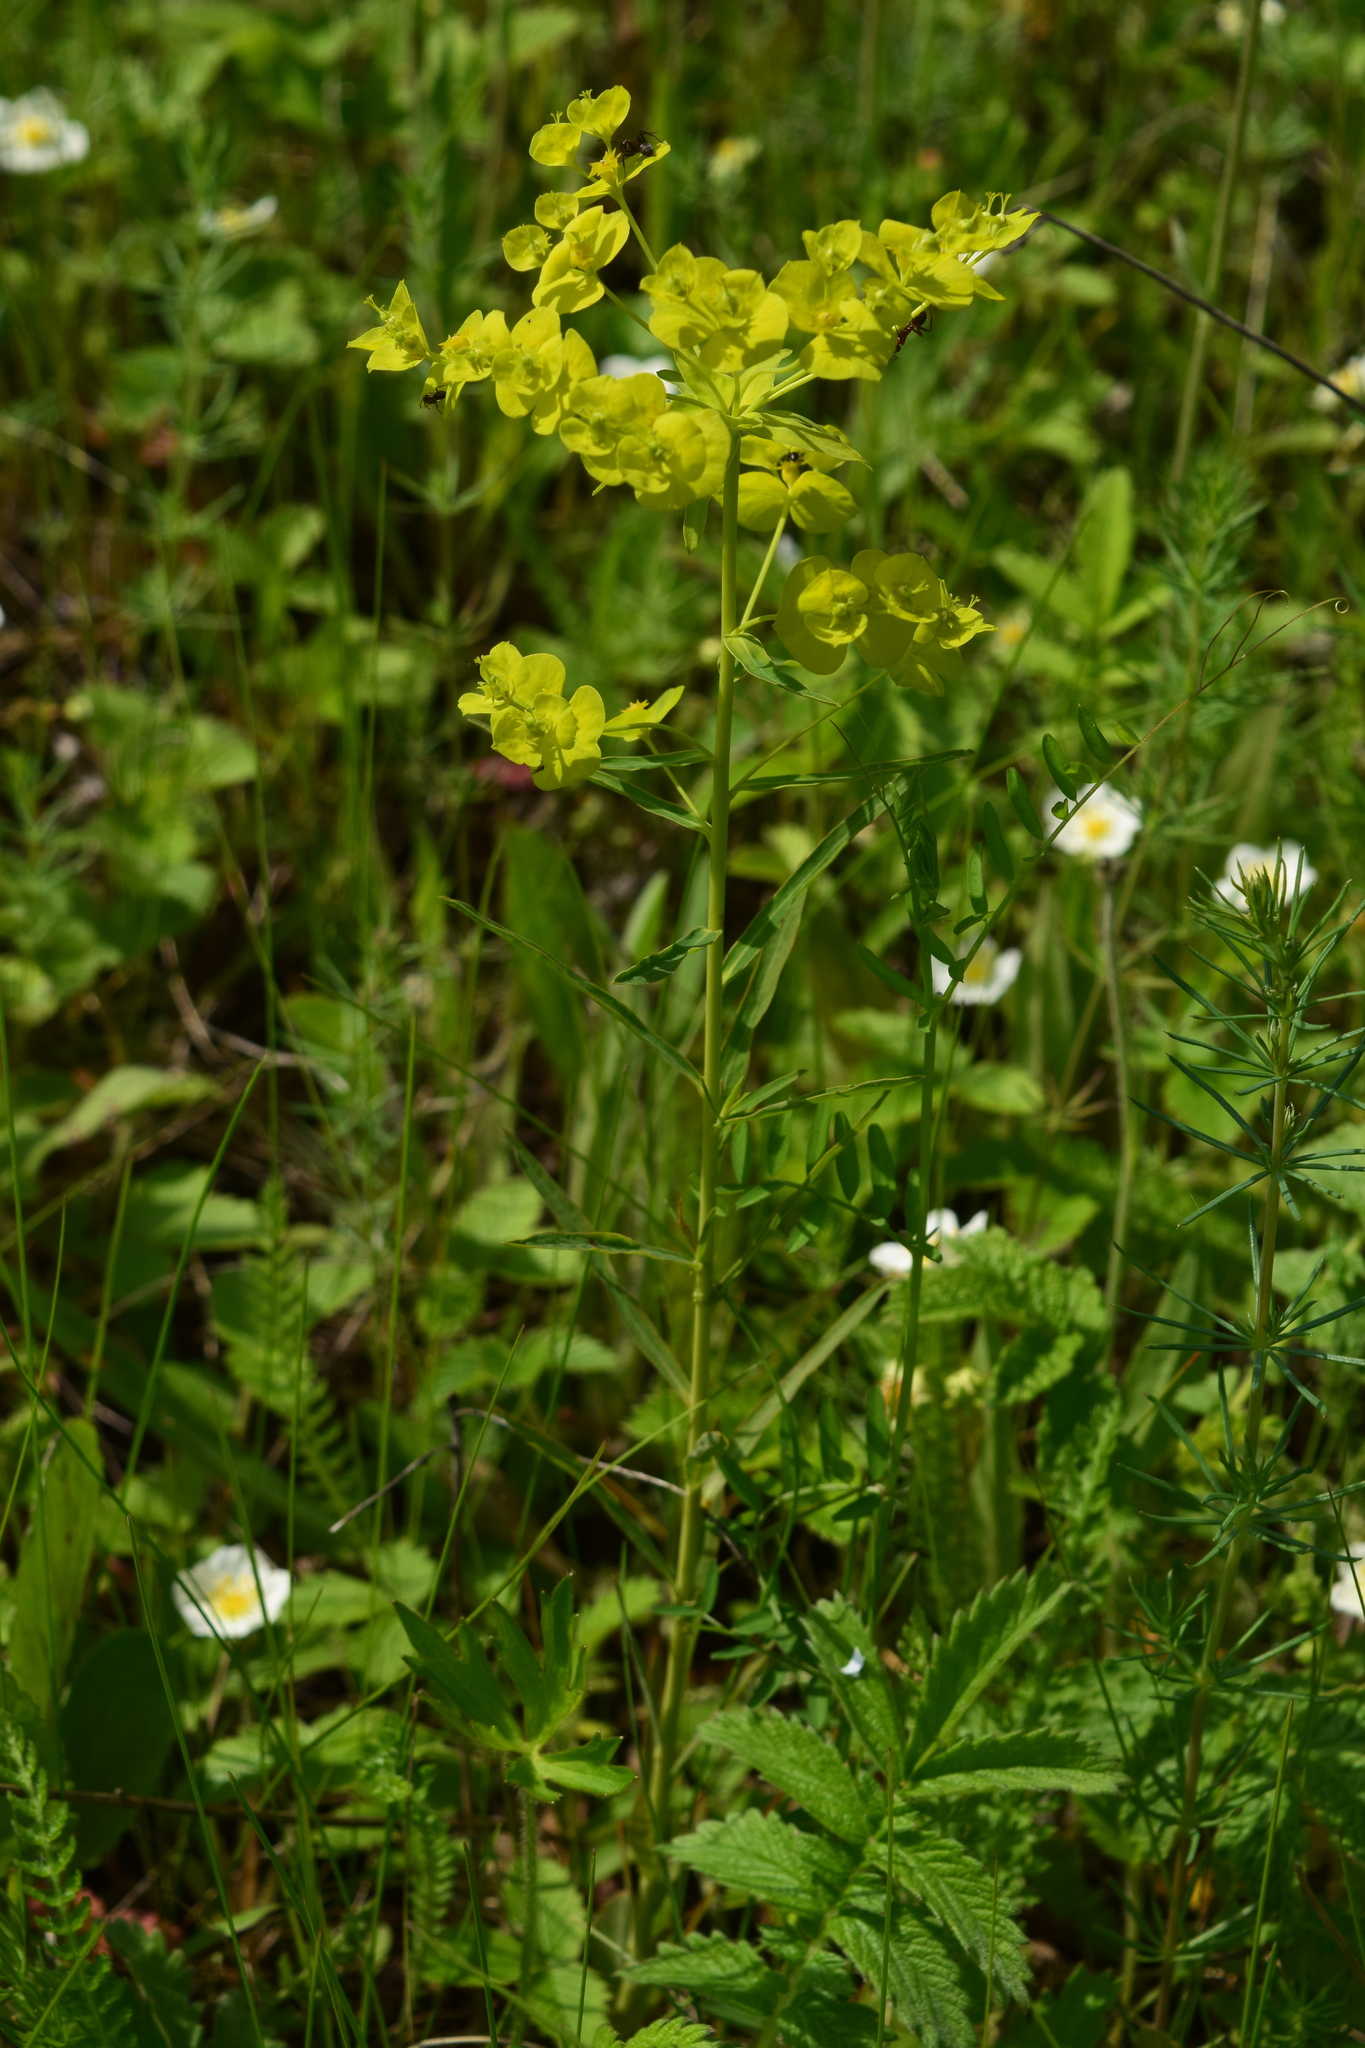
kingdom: Plantae
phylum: Tracheophyta
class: Magnoliopsida
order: Malpighiales
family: Euphorbiaceae
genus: Euphorbia
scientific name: Euphorbia virgata
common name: Leafy spurge
